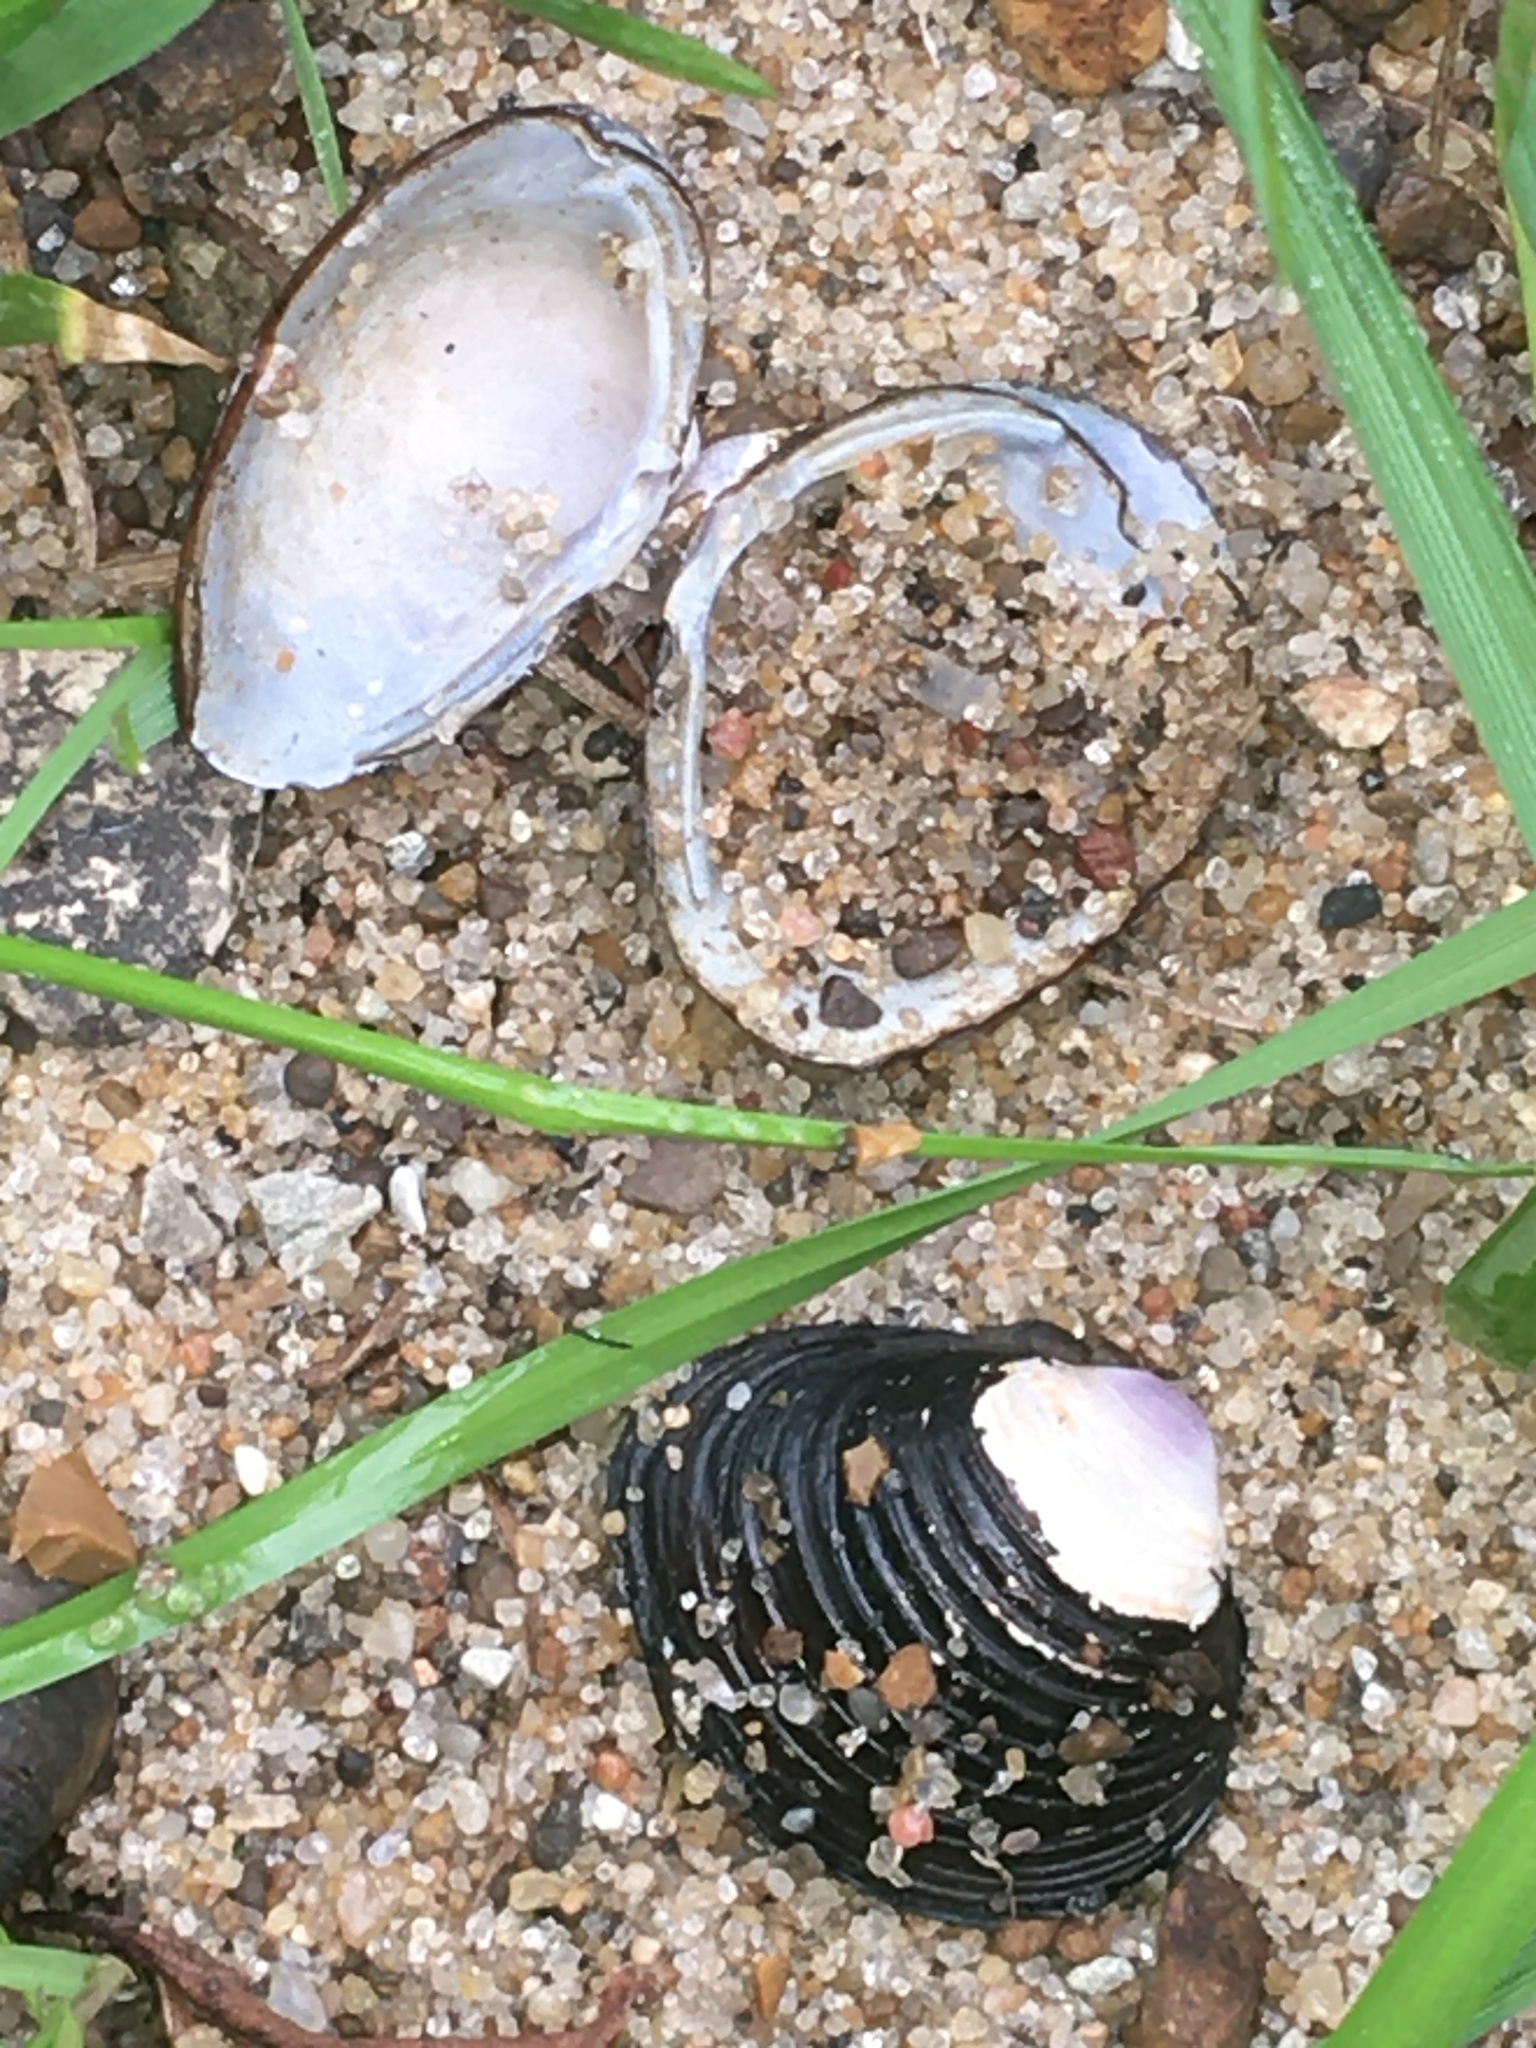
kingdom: Animalia
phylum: Mollusca
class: Bivalvia
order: Venerida
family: Cyrenidae
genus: Corbicula
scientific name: Corbicula fluminea
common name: Asian clam
